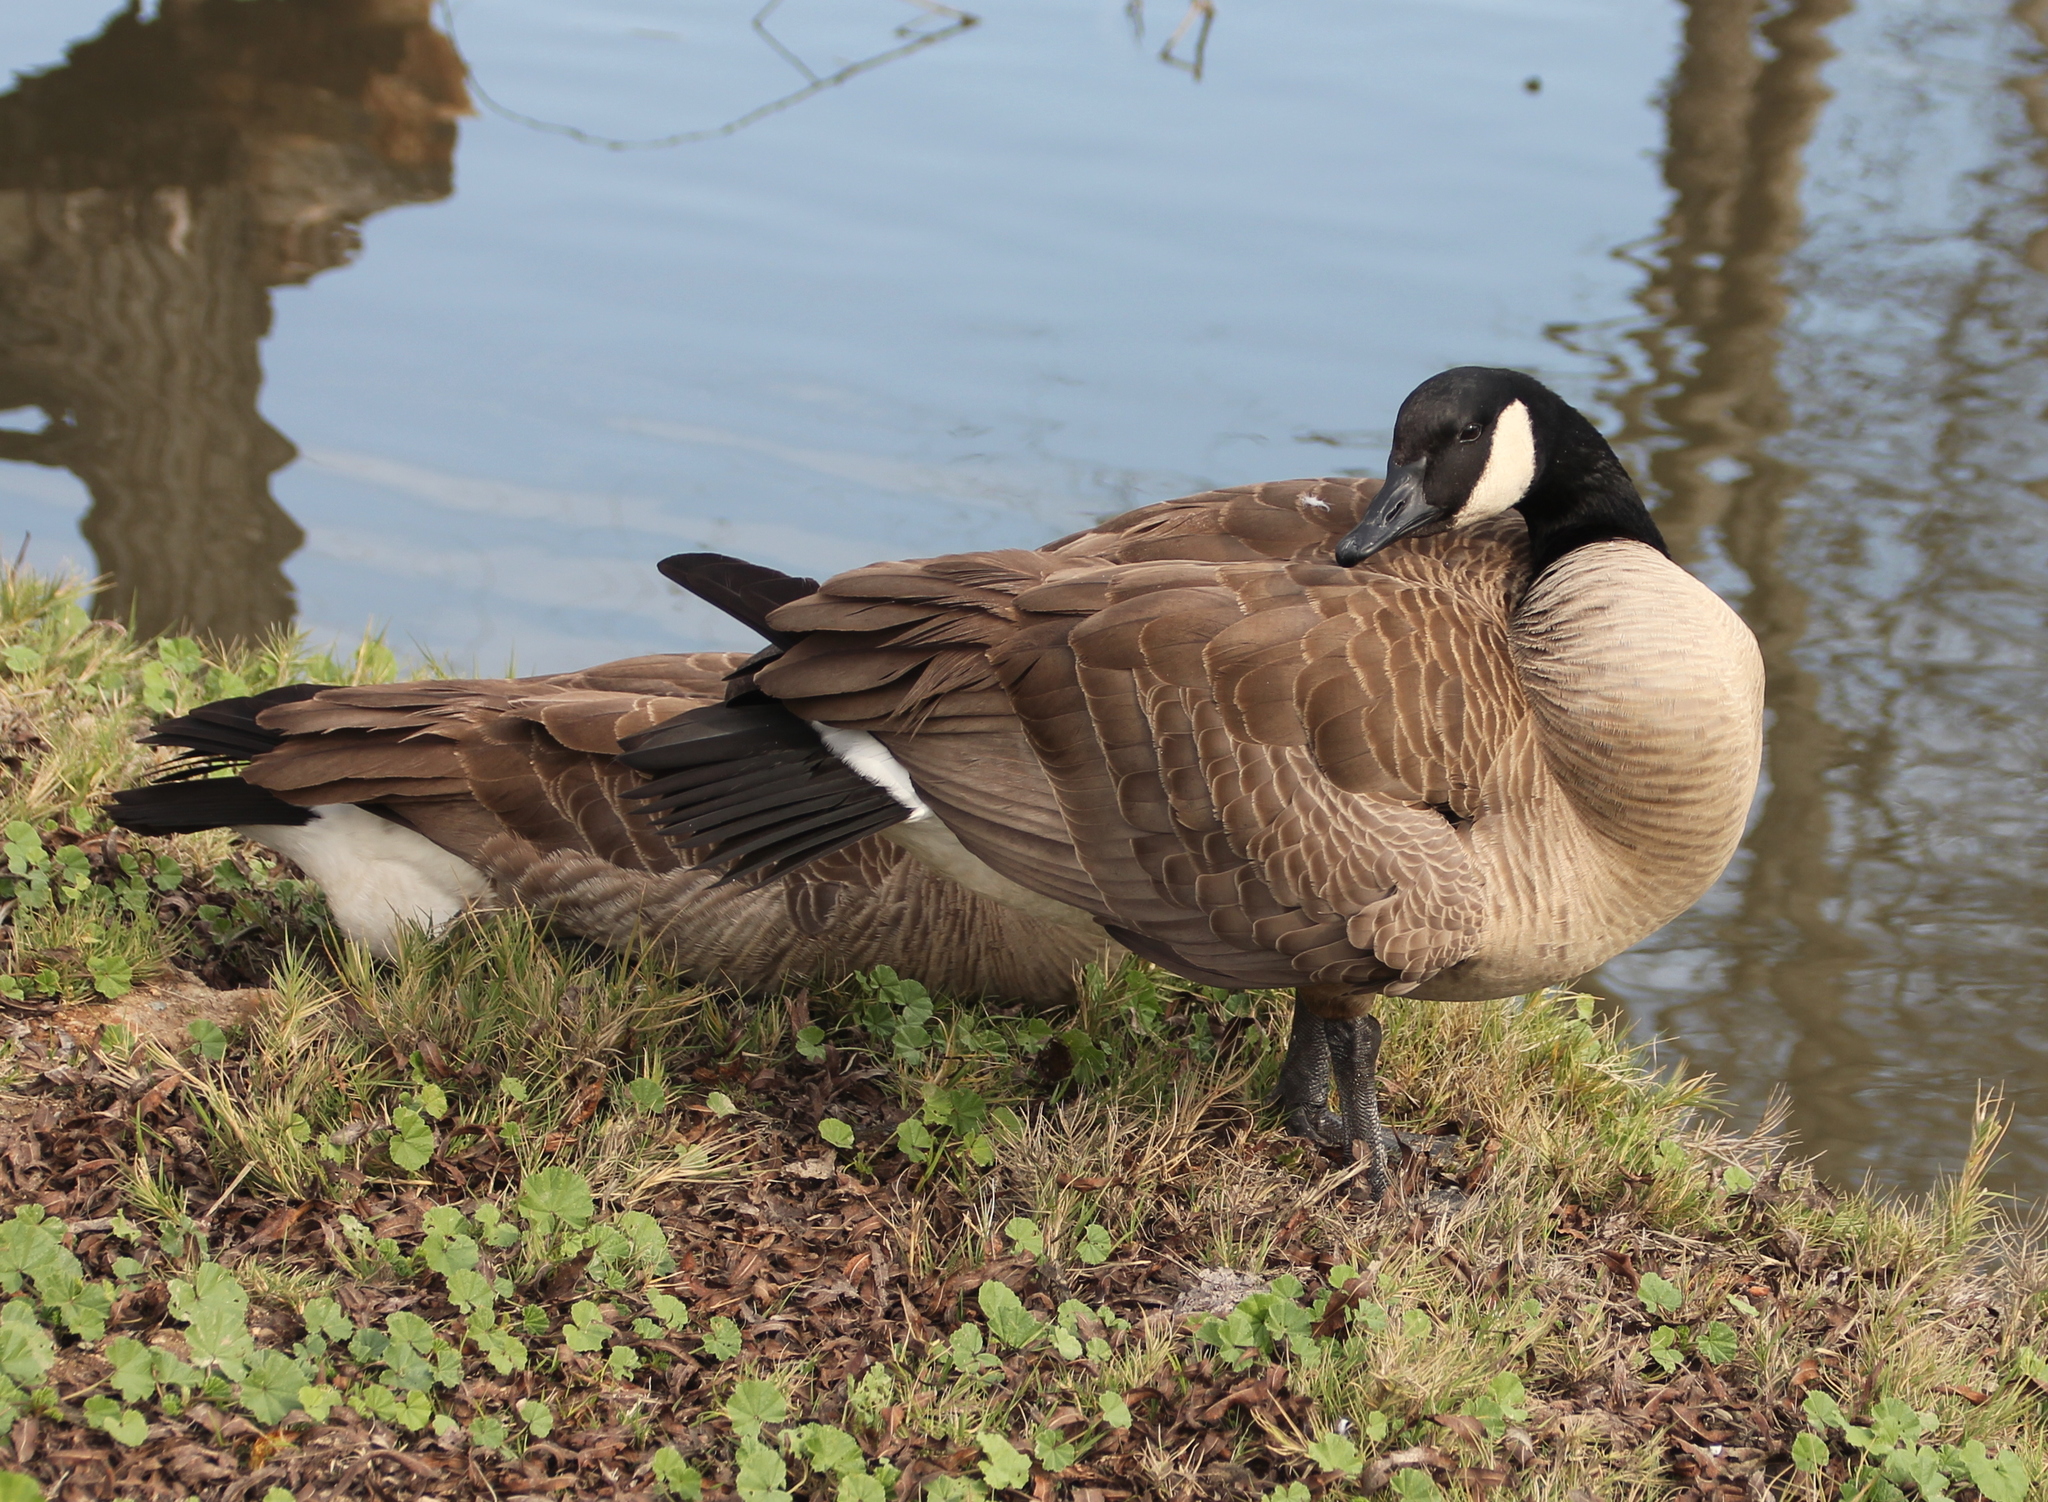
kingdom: Animalia
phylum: Chordata
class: Aves
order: Anseriformes
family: Anatidae
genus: Branta
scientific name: Branta canadensis
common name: Canada goose
